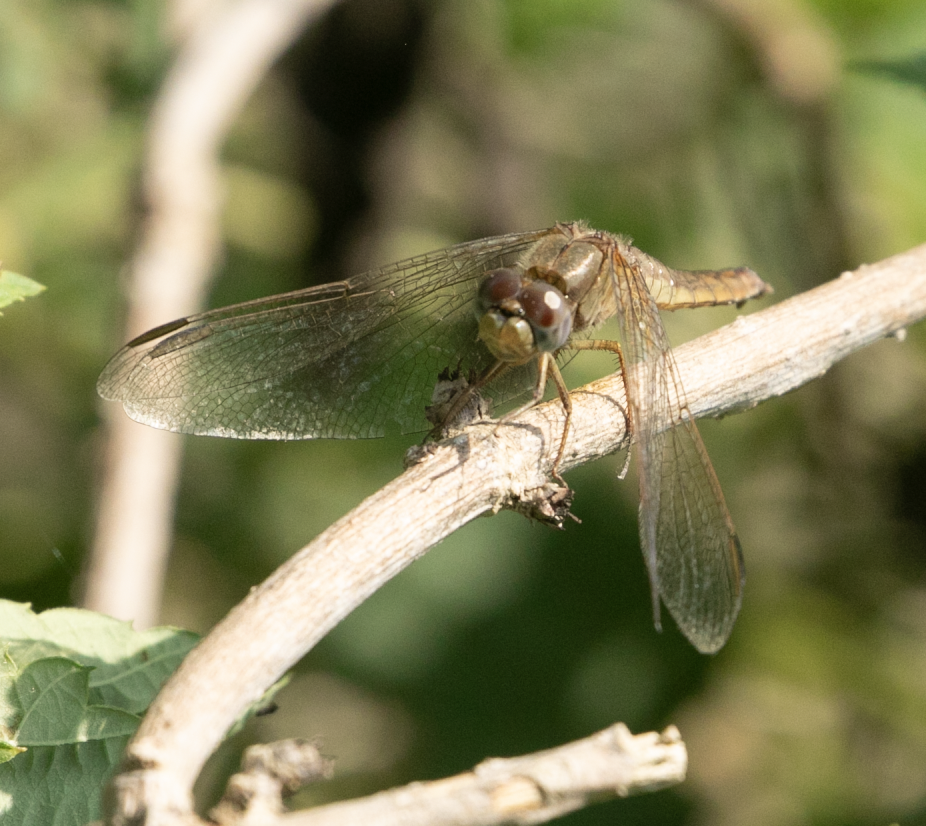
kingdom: Animalia
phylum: Arthropoda
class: Insecta
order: Odonata
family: Libellulidae
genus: Crocothemis
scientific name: Crocothemis erythraea
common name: Scarlet dragonfly
